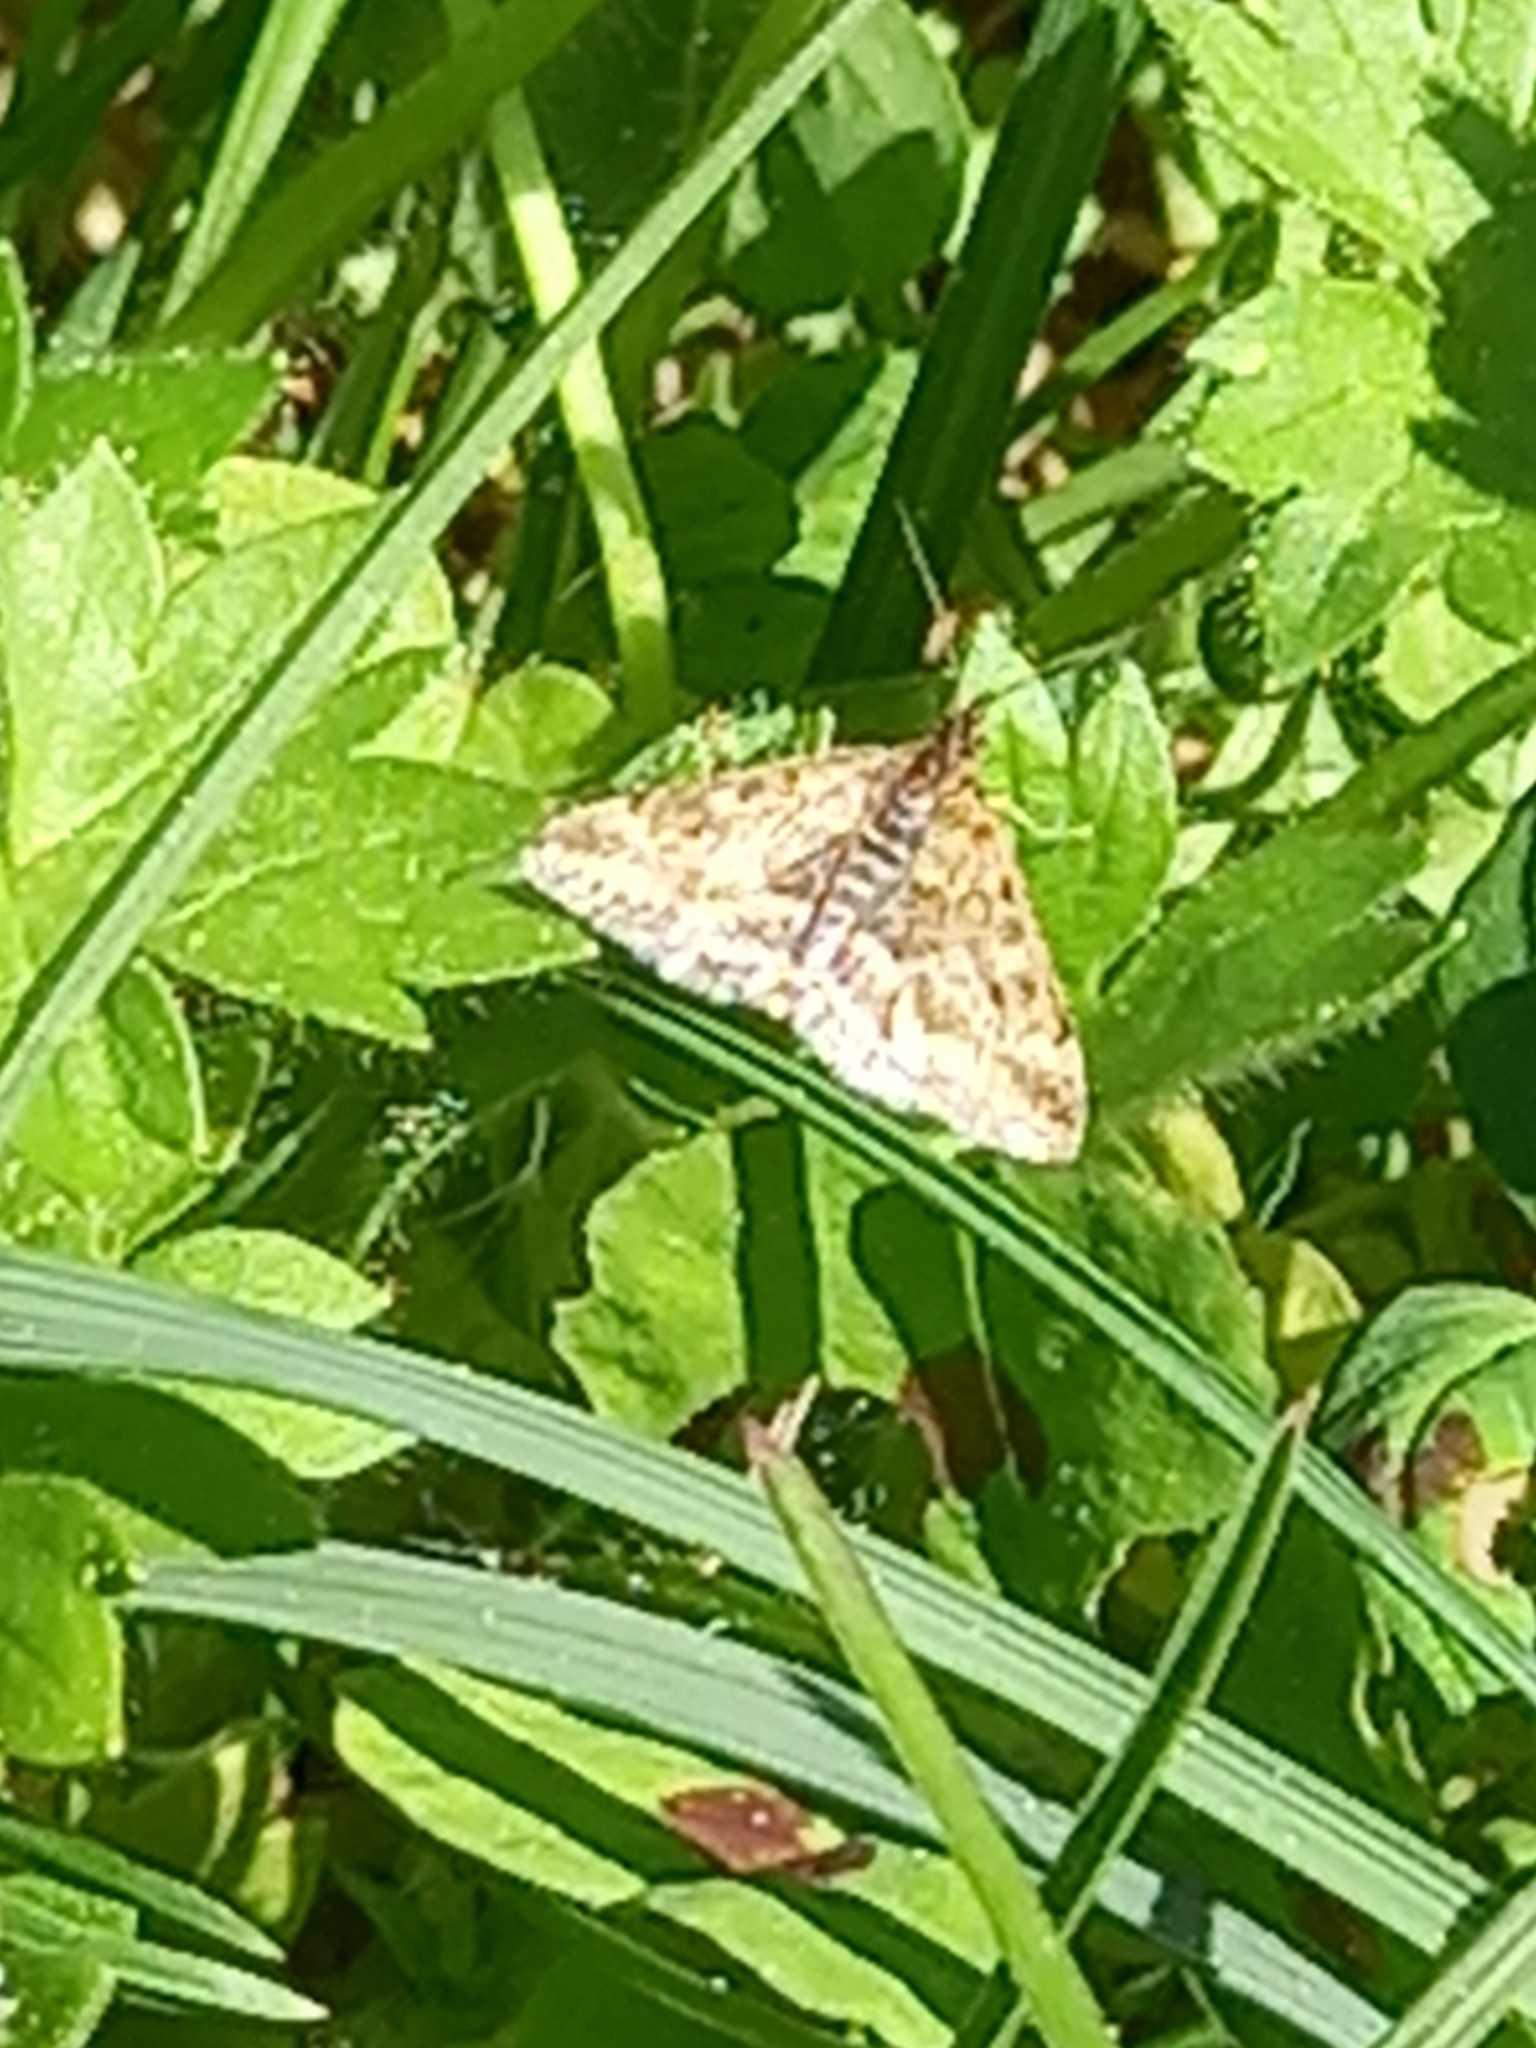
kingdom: Animalia
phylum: Arthropoda
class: Insecta
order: Lepidoptera
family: Crambidae
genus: Pyrausta
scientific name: Pyrausta despicata
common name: Straw-barred pearl
